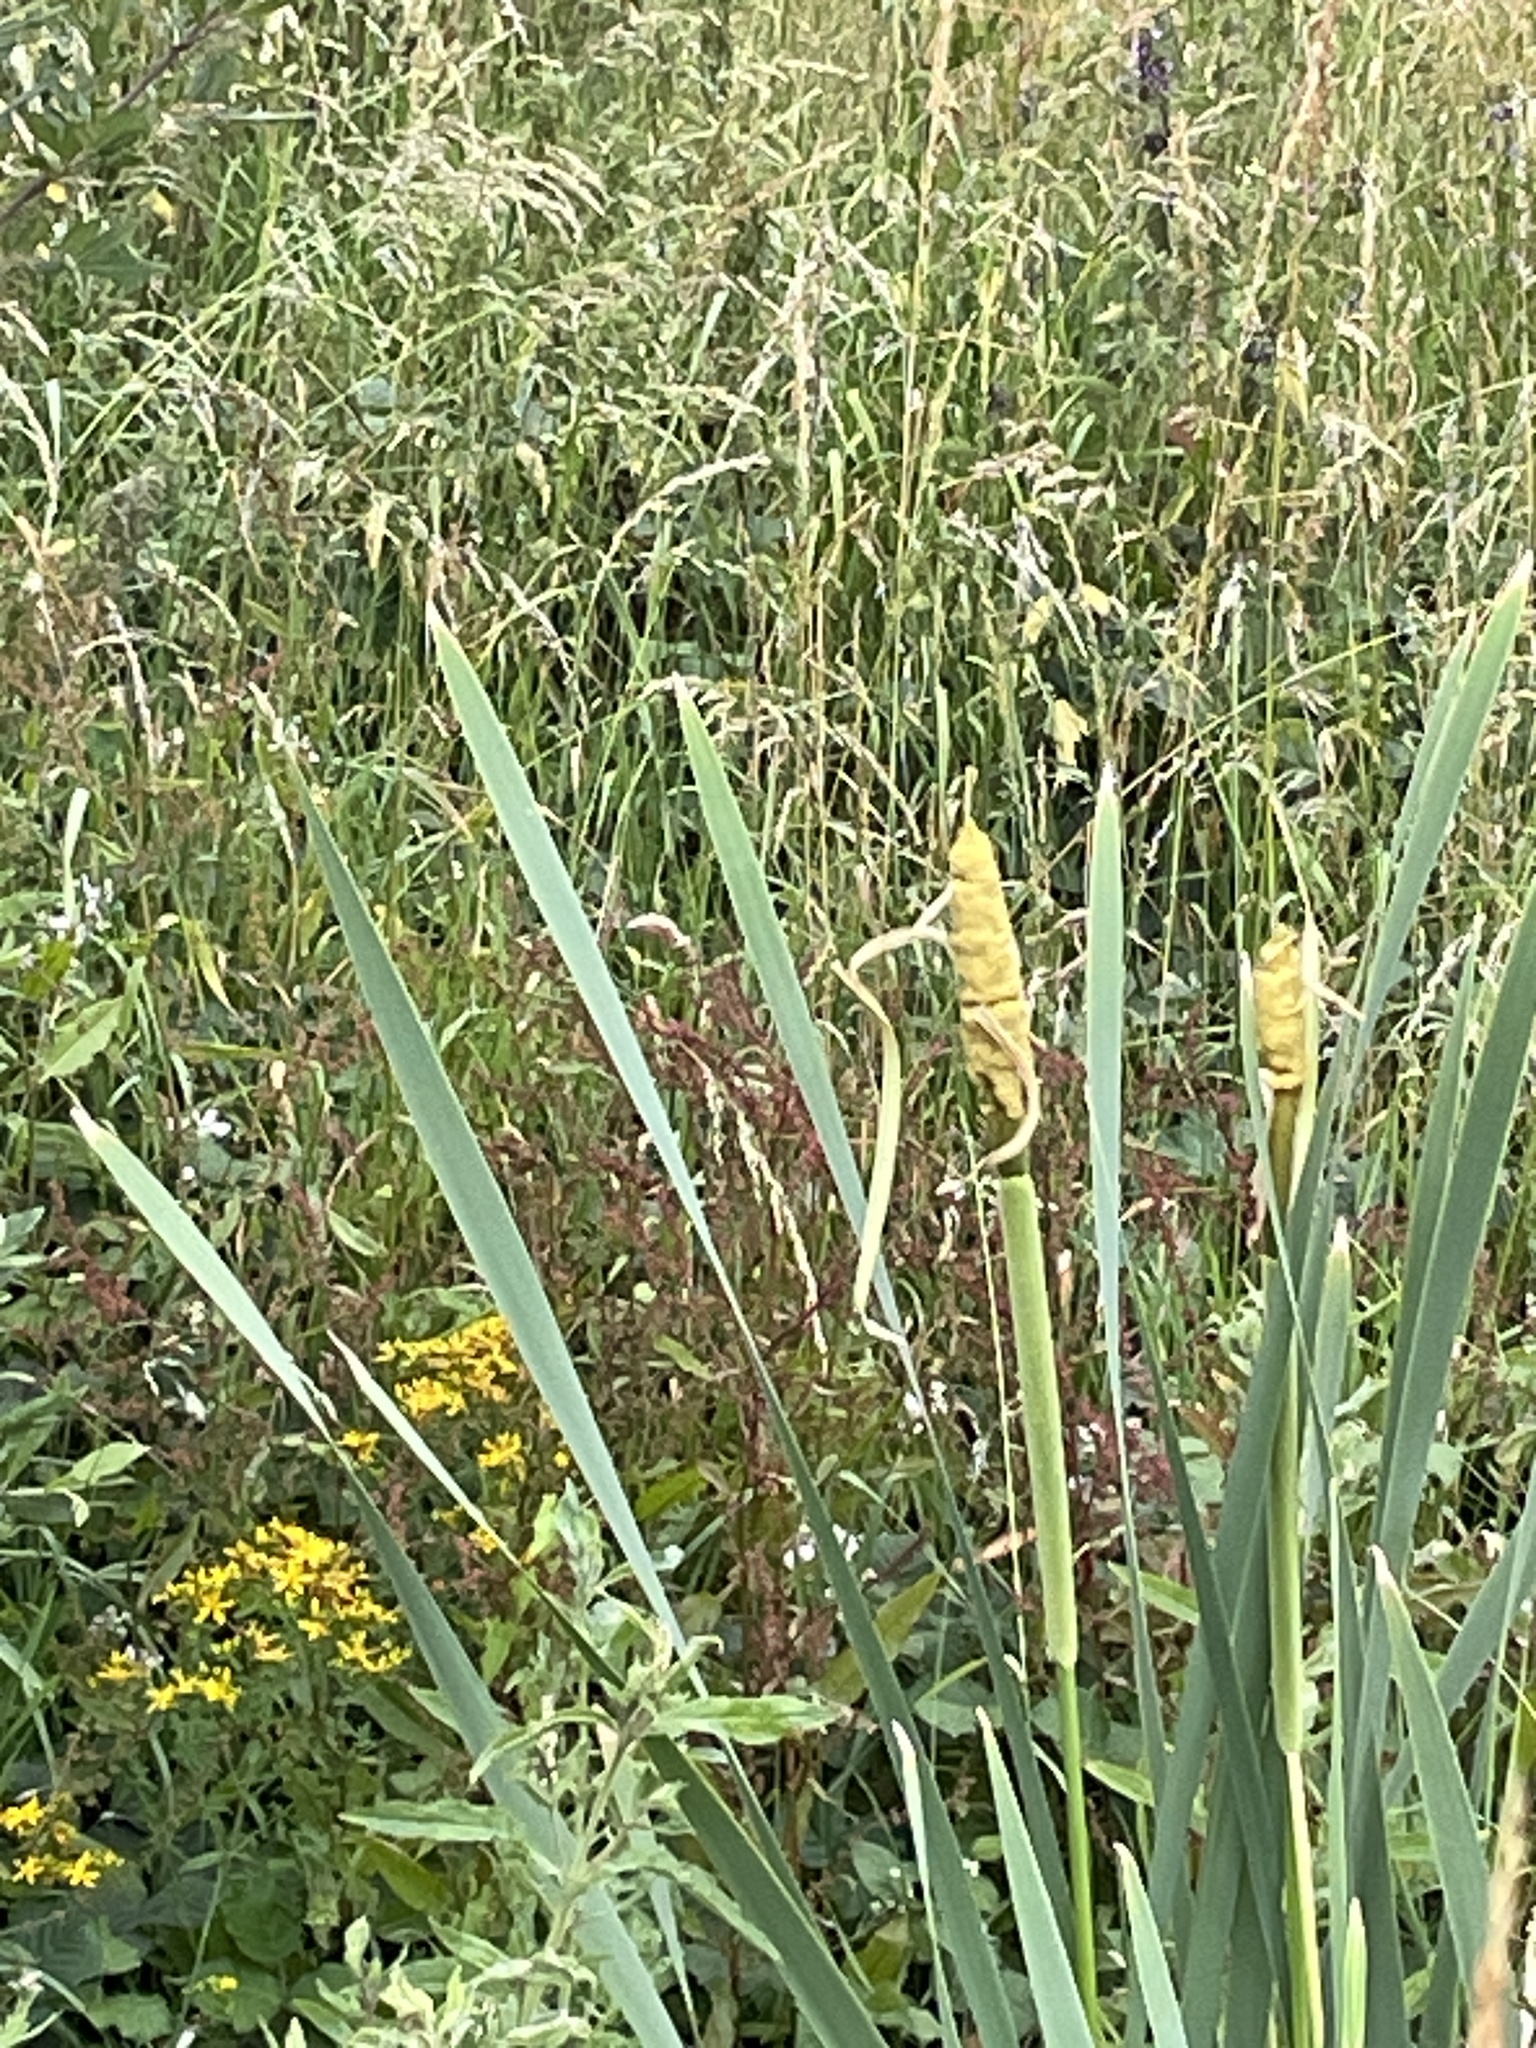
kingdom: Plantae
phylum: Tracheophyta
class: Liliopsida
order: Poales
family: Typhaceae
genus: Typha
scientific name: Typha latifolia
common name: Broadleaf cattail
